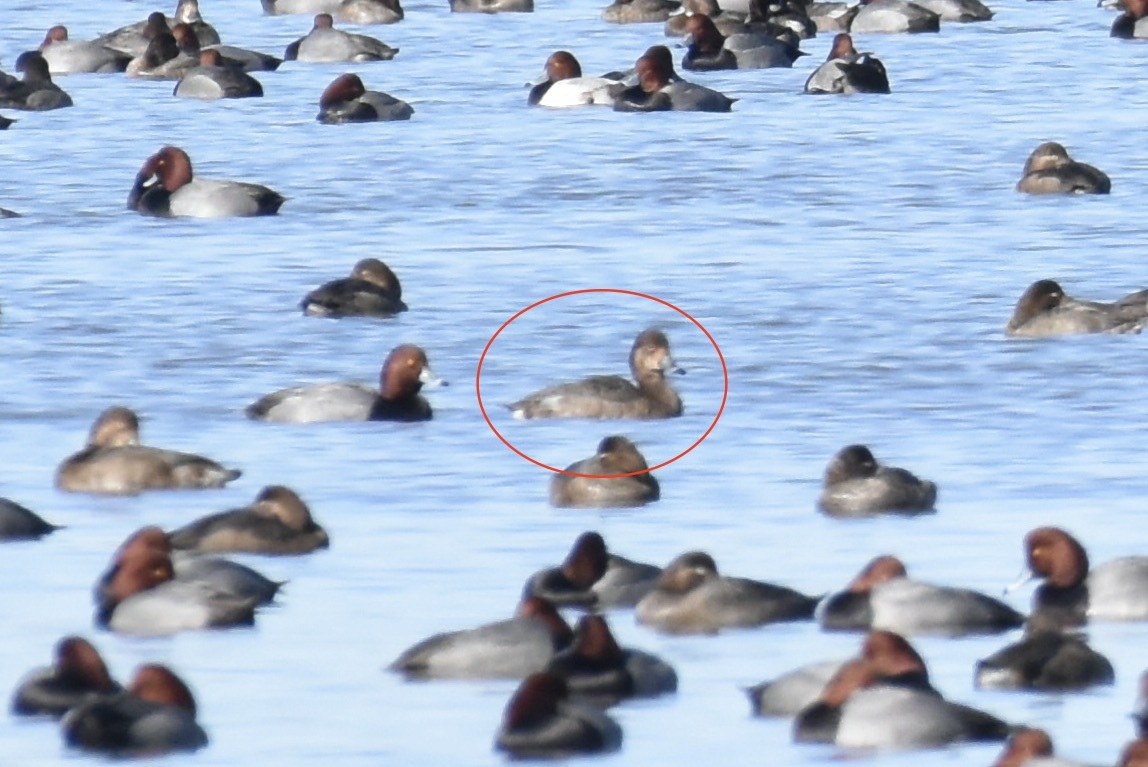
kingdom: Animalia
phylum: Chordata
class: Aves
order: Anseriformes
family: Anatidae
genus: Aythya
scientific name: Aythya americana
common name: Redhead
